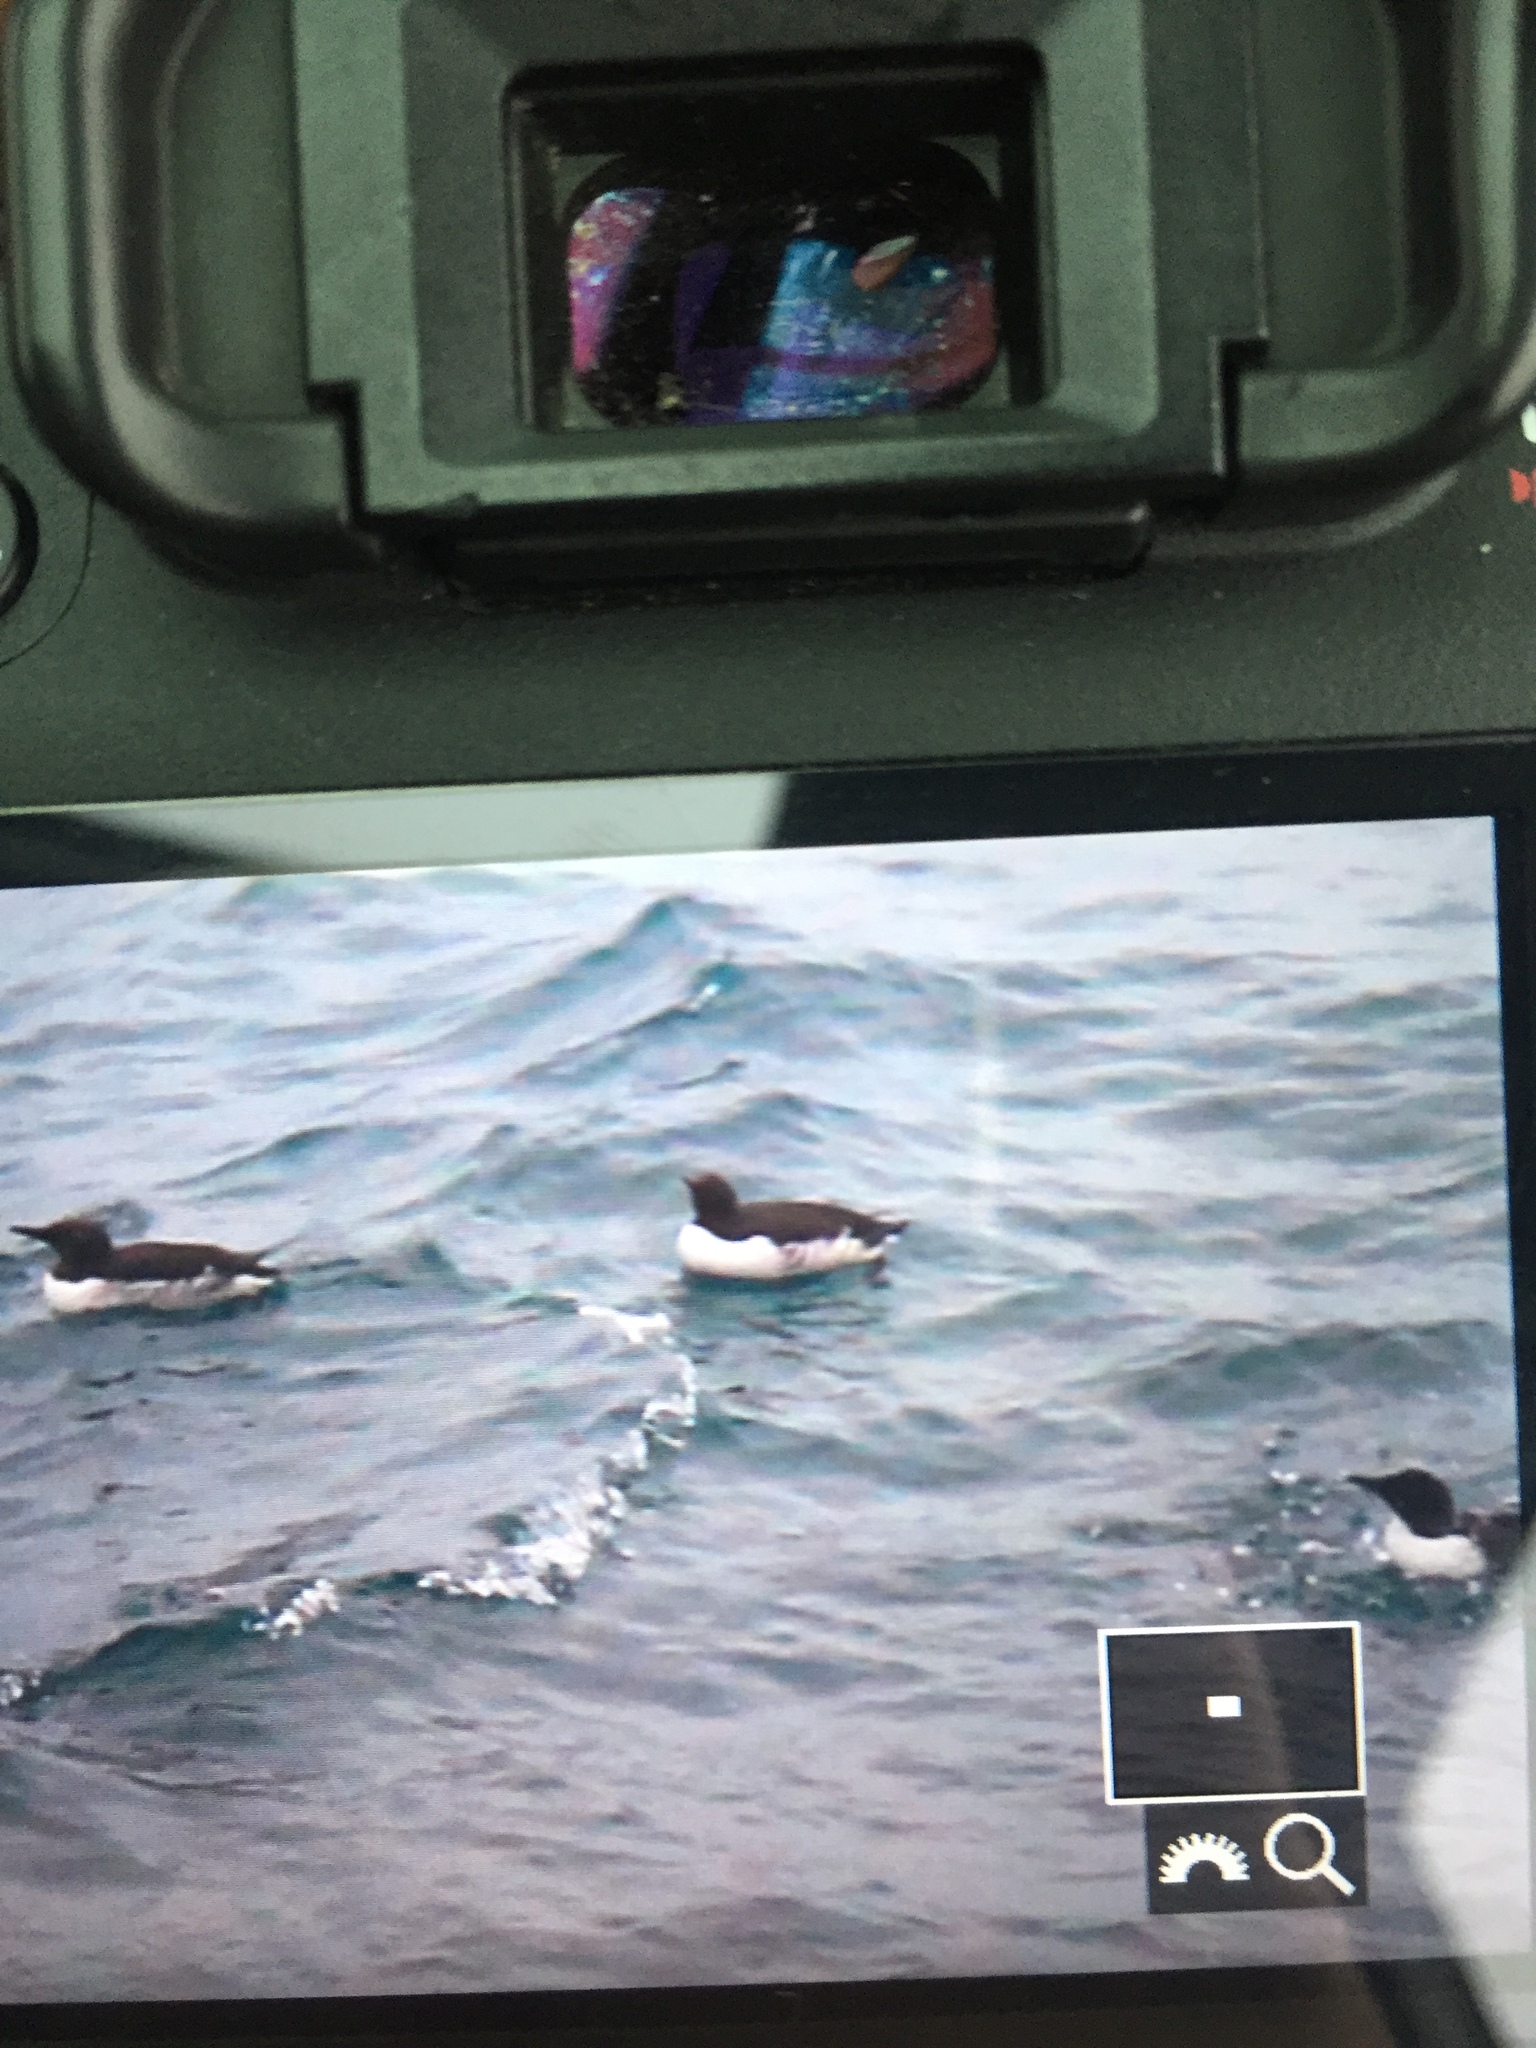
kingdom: Animalia
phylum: Chordata
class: Aves
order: Charadriiformes
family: Alcidae
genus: Uria
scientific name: Uria aalge
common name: Common murre
